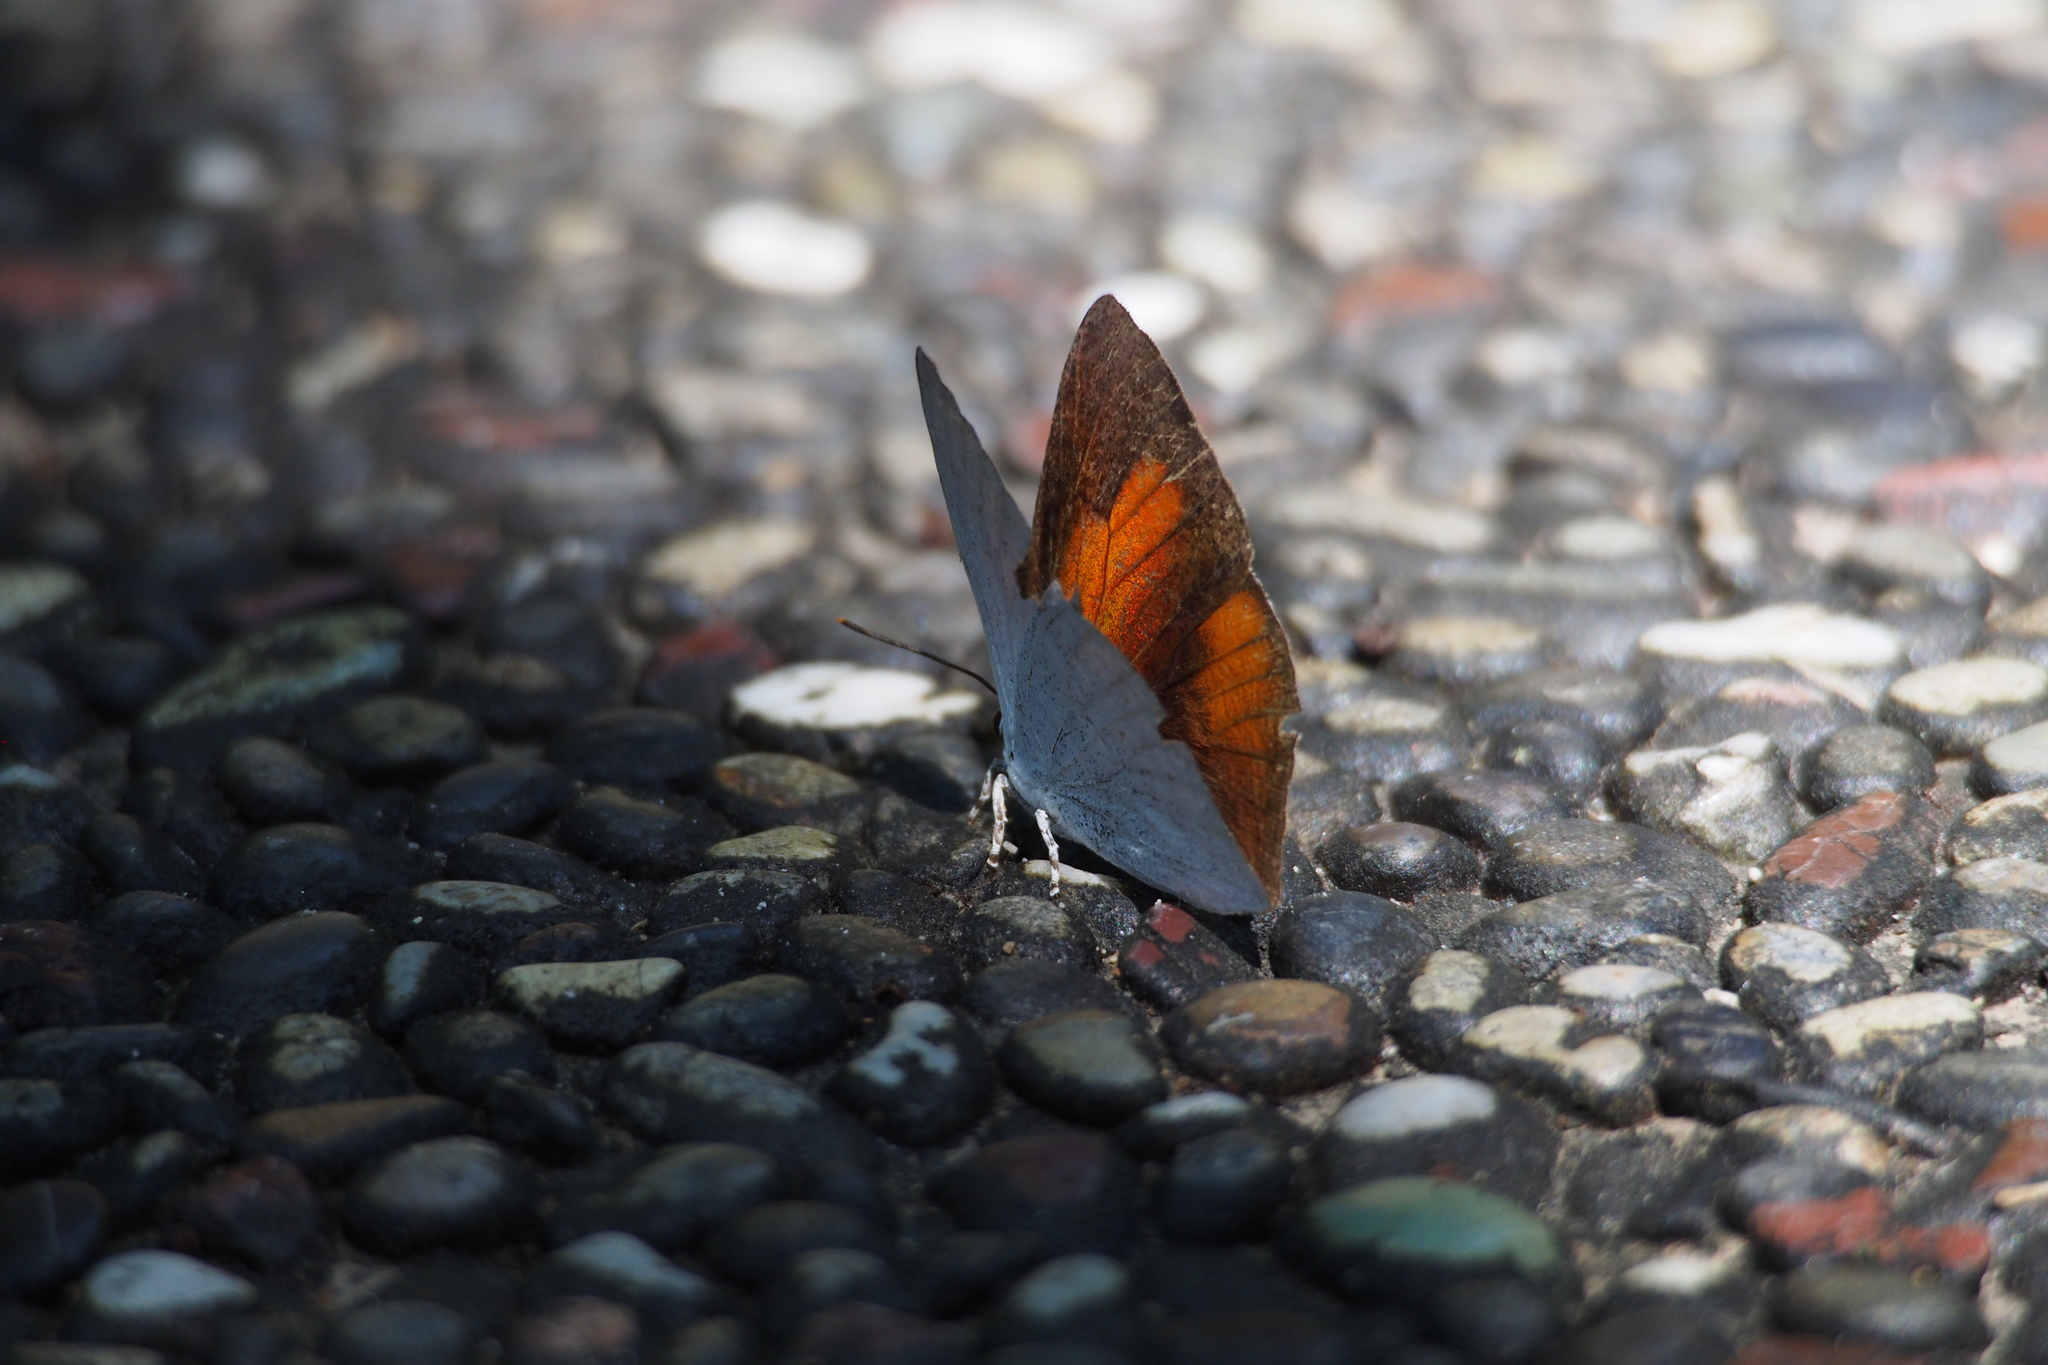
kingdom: Animalia
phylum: Arthropoda
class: Insecta
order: Lepidoptera
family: Lycaenidae
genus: Curetis
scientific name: Curetis acuta
